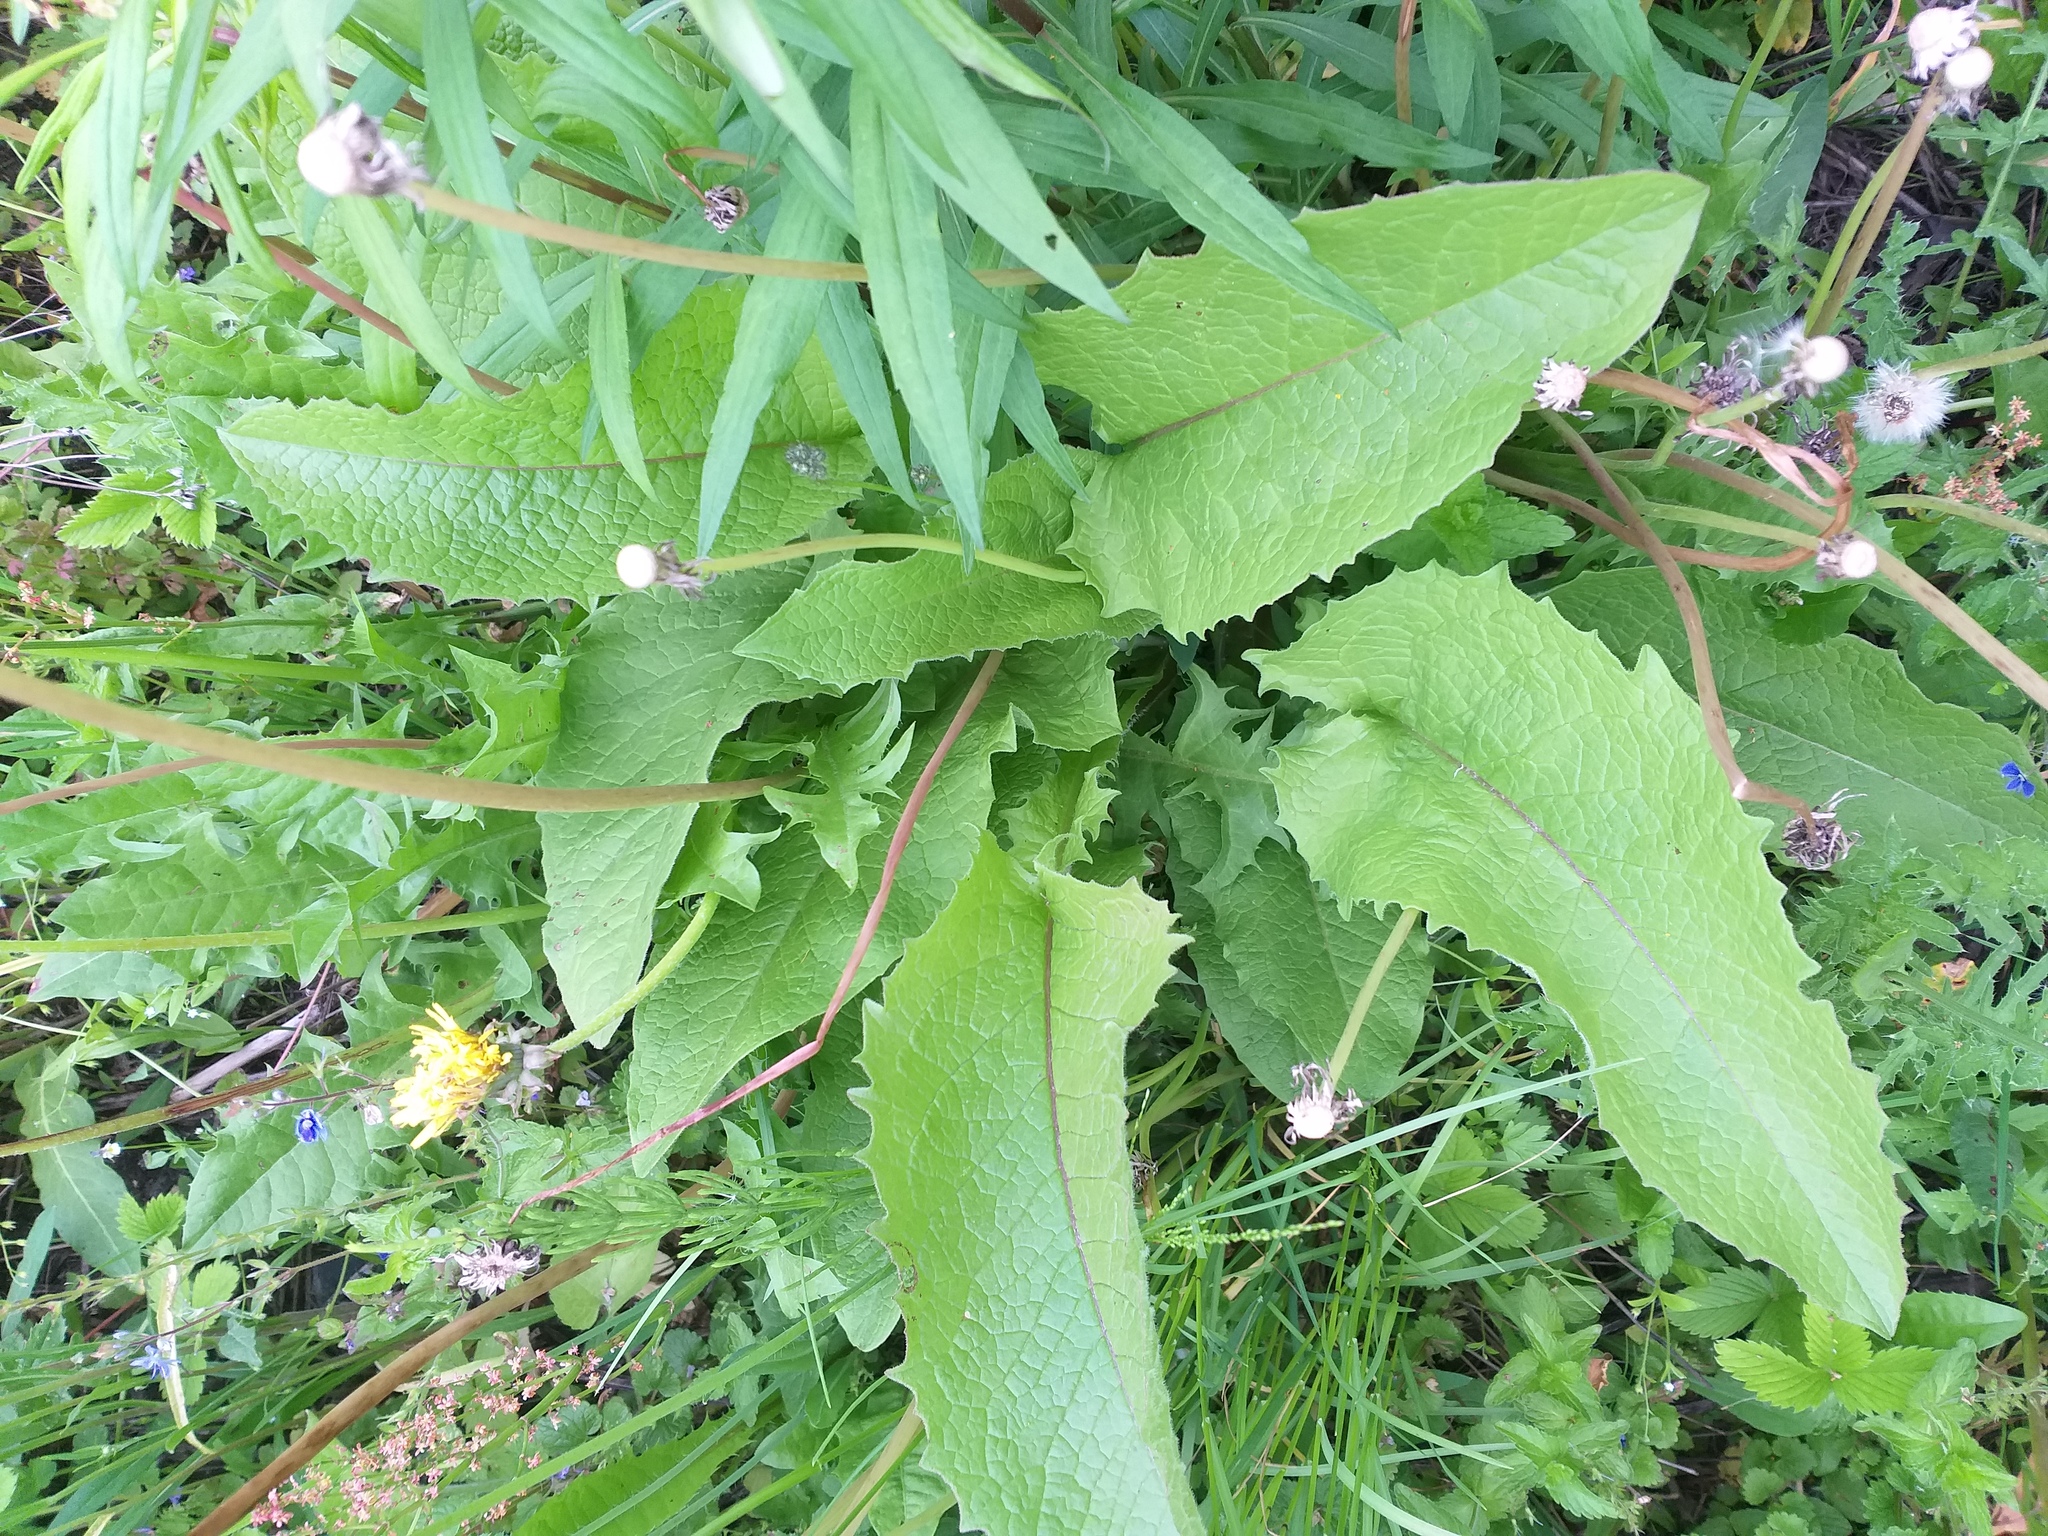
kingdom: Plantae
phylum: Tracheophyta
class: Magnoliopsida
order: Asterales
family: Asteraceae
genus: Crepis
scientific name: Crepis sibirica
